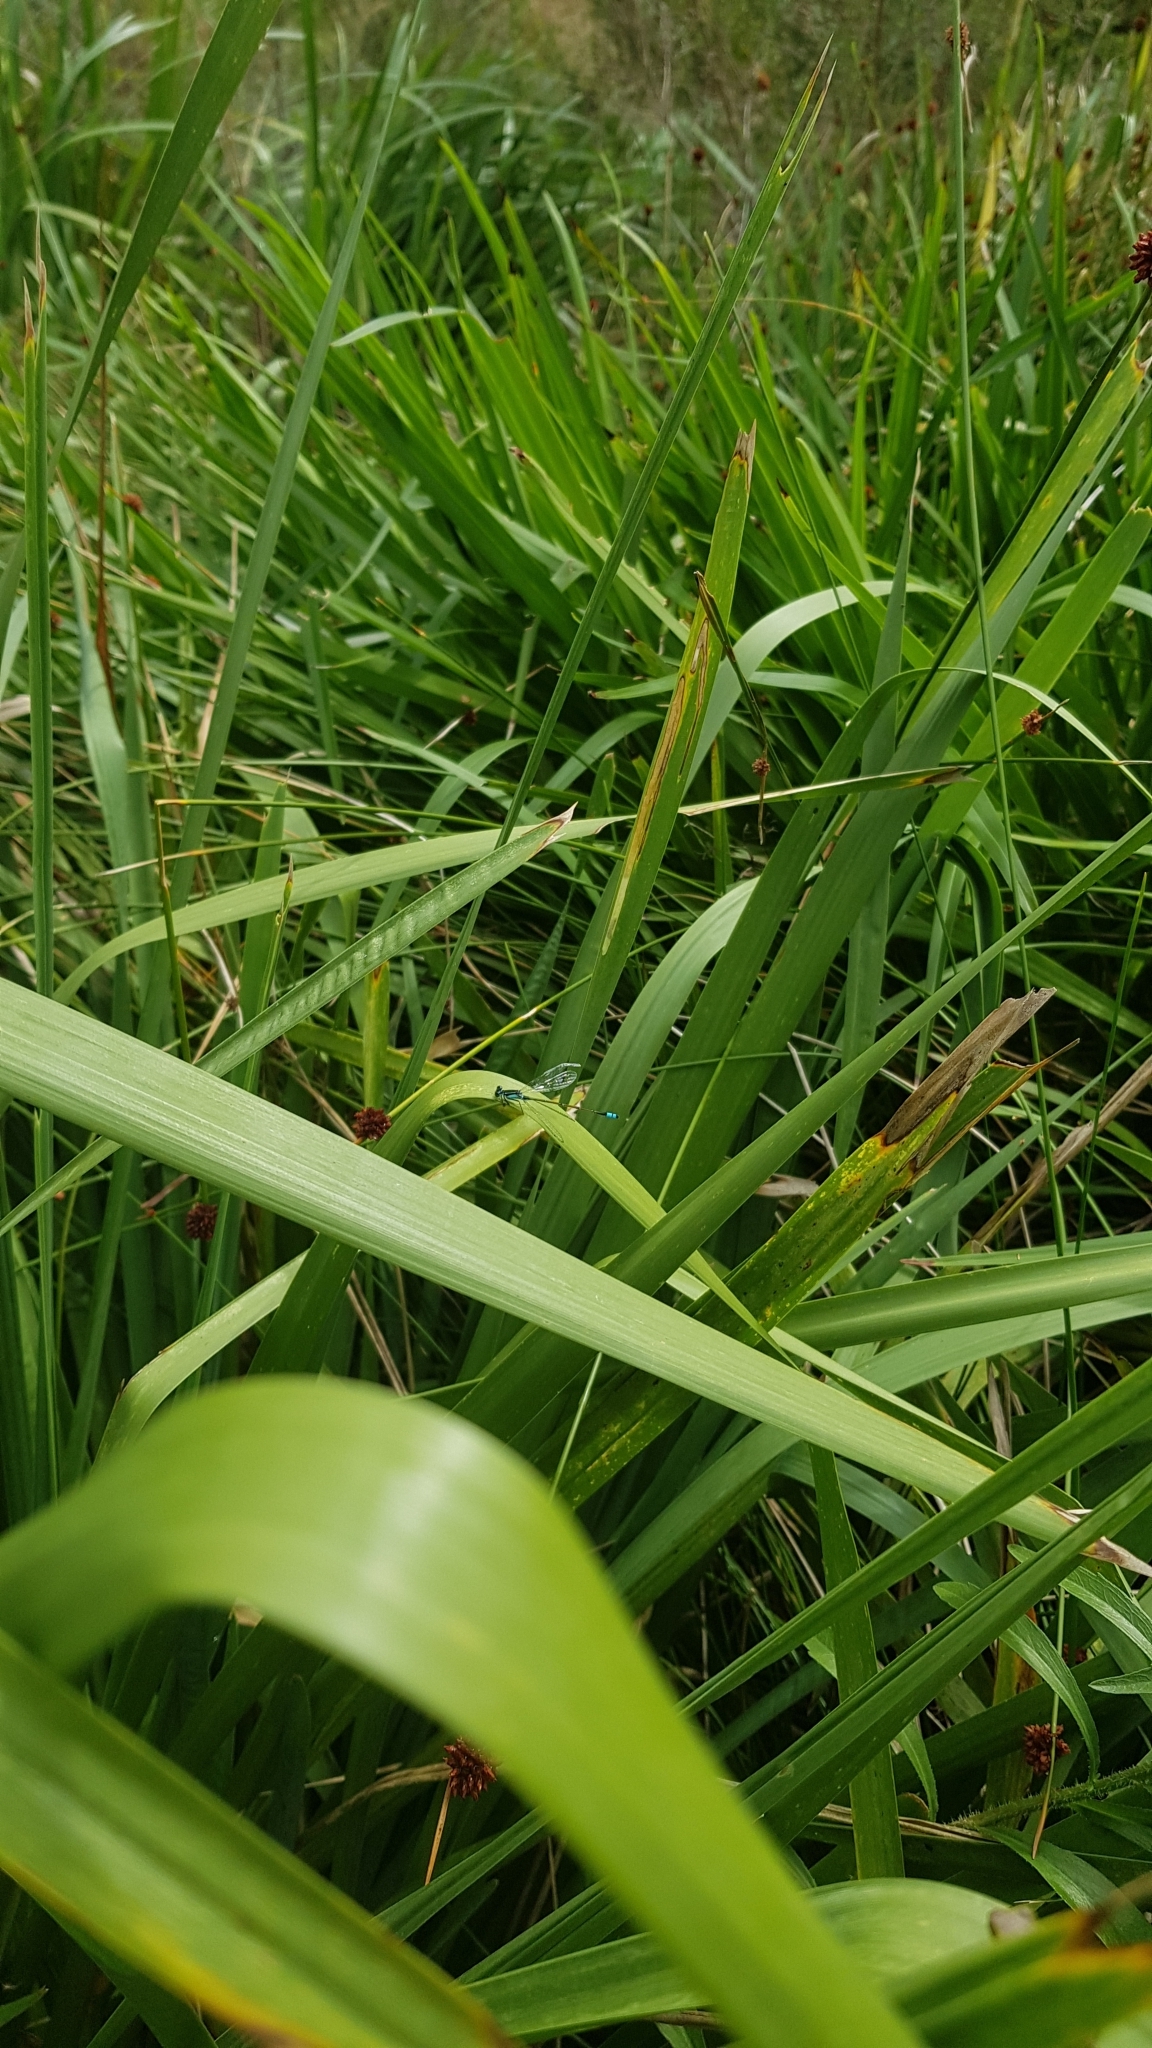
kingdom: Animalia
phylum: Arthropoda
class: Insecta
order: Odonata
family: Coenagrionidae
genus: Ischnura
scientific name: Ischnura heterosticta
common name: Common bluetail
